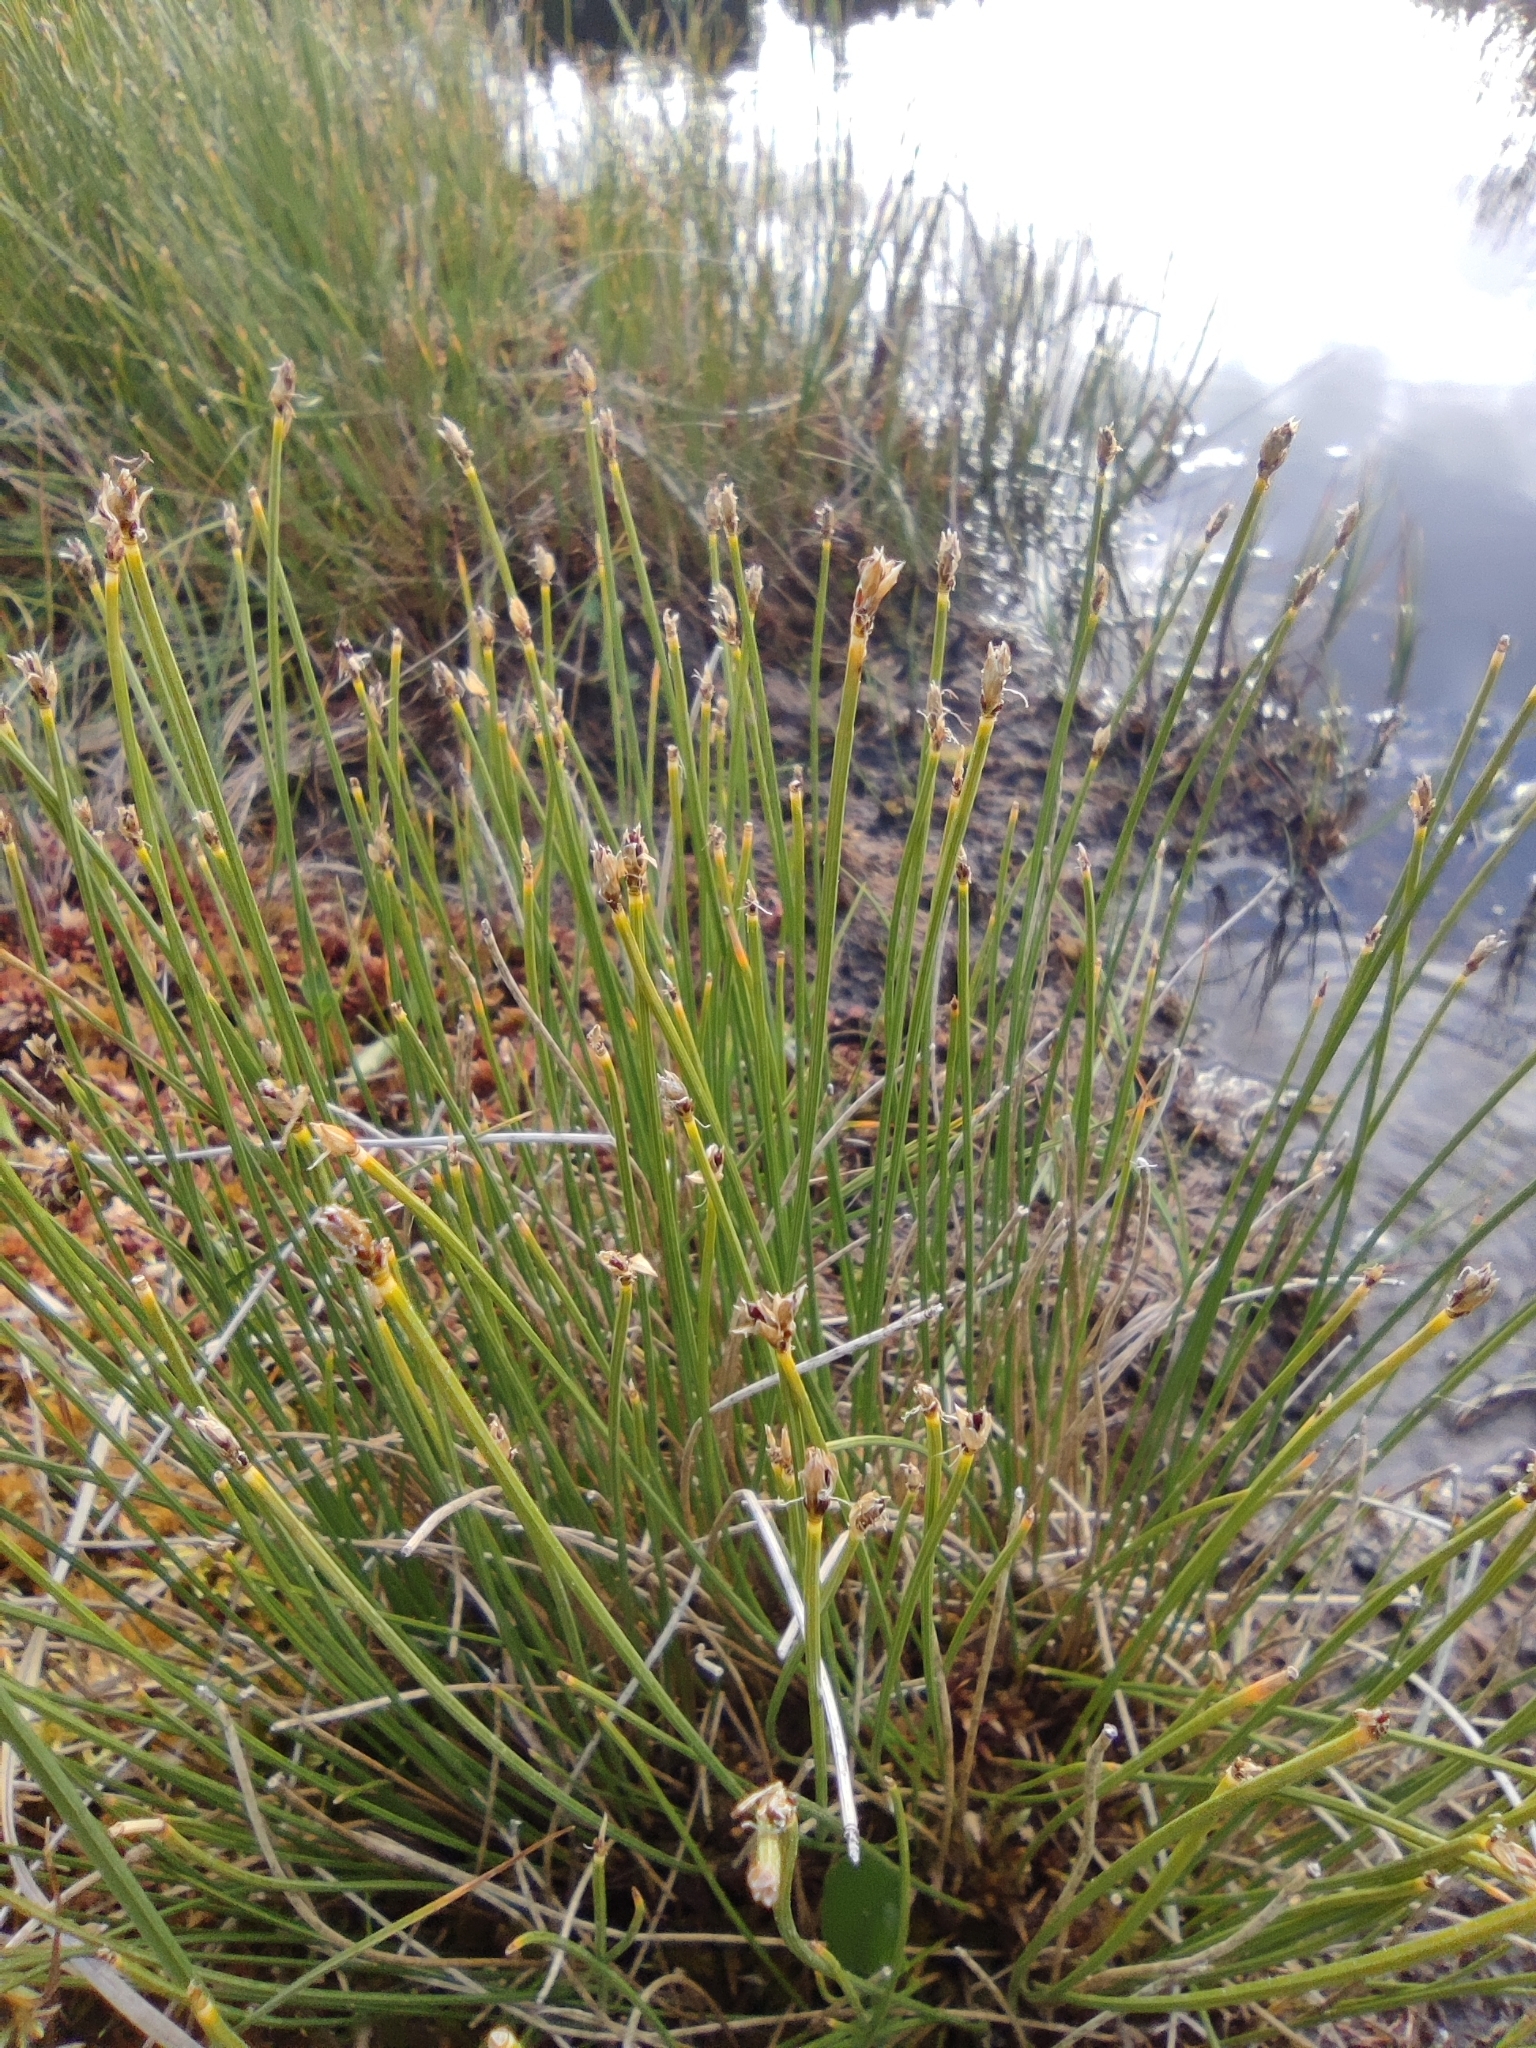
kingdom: Plantae
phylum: Tracheophyta
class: Liliopsida
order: Poales
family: Cyperaceae
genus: Trichophorum
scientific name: Trichophorum cespitosum
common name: Cespitose bulrush
